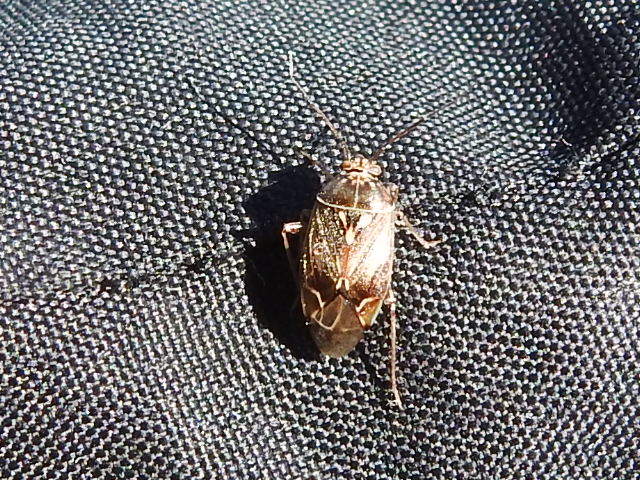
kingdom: Animalia
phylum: Arthropoda
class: Insecta
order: Hemiptera
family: Miridae
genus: Lygus
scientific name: Lygus lineolaris
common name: North american tarnished plant bug
